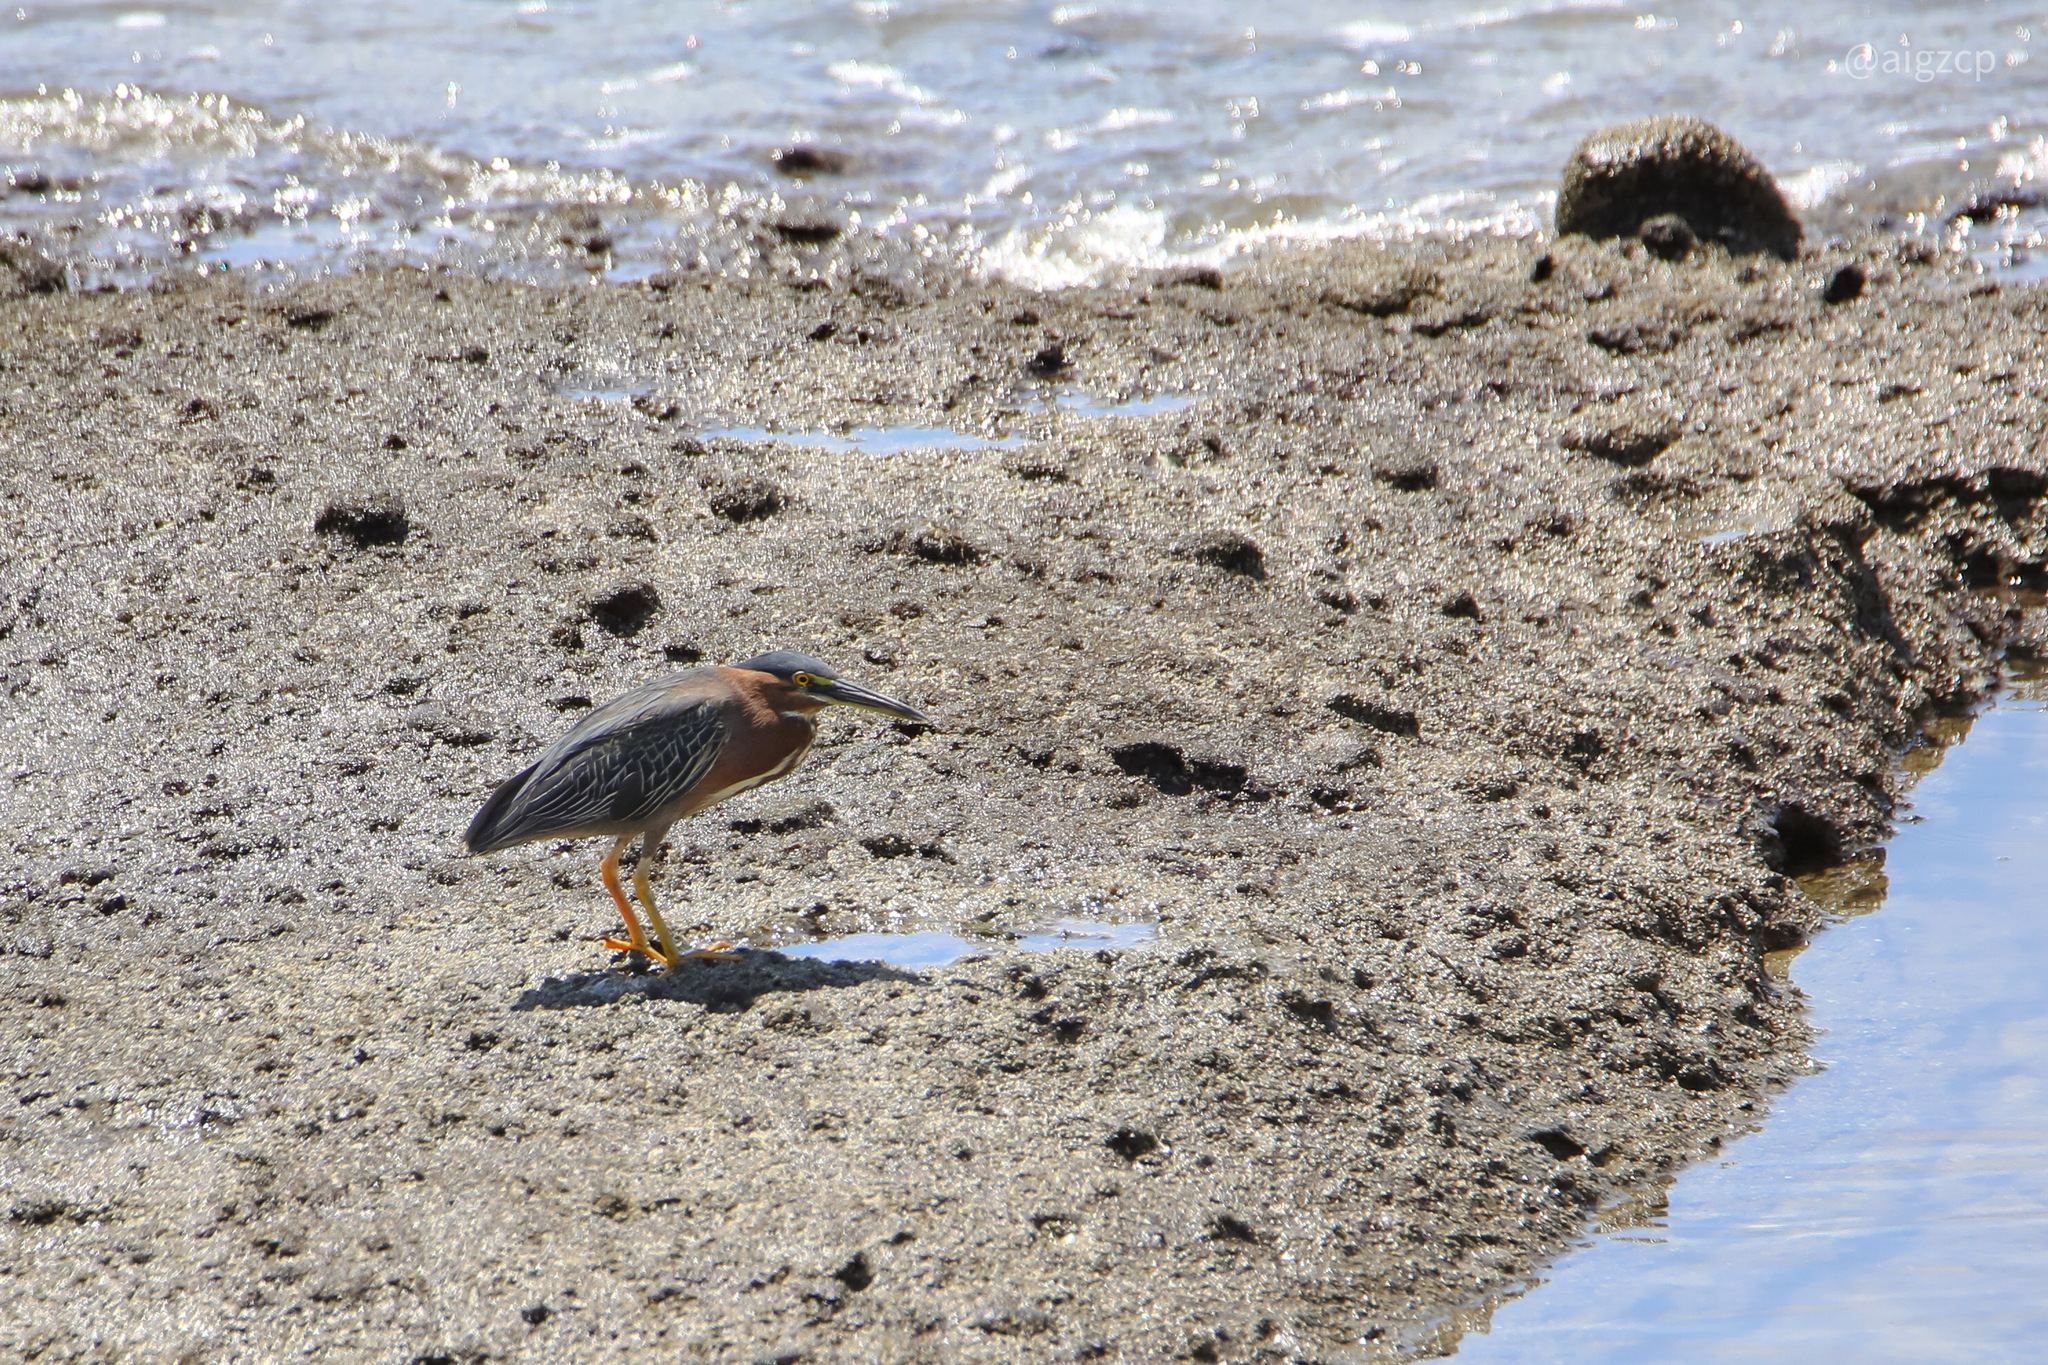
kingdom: Animalia
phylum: Chordata
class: Aves
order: Pelecaniformes
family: Ardeidae
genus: Butorides
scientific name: Butorides virescens
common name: Green heron
